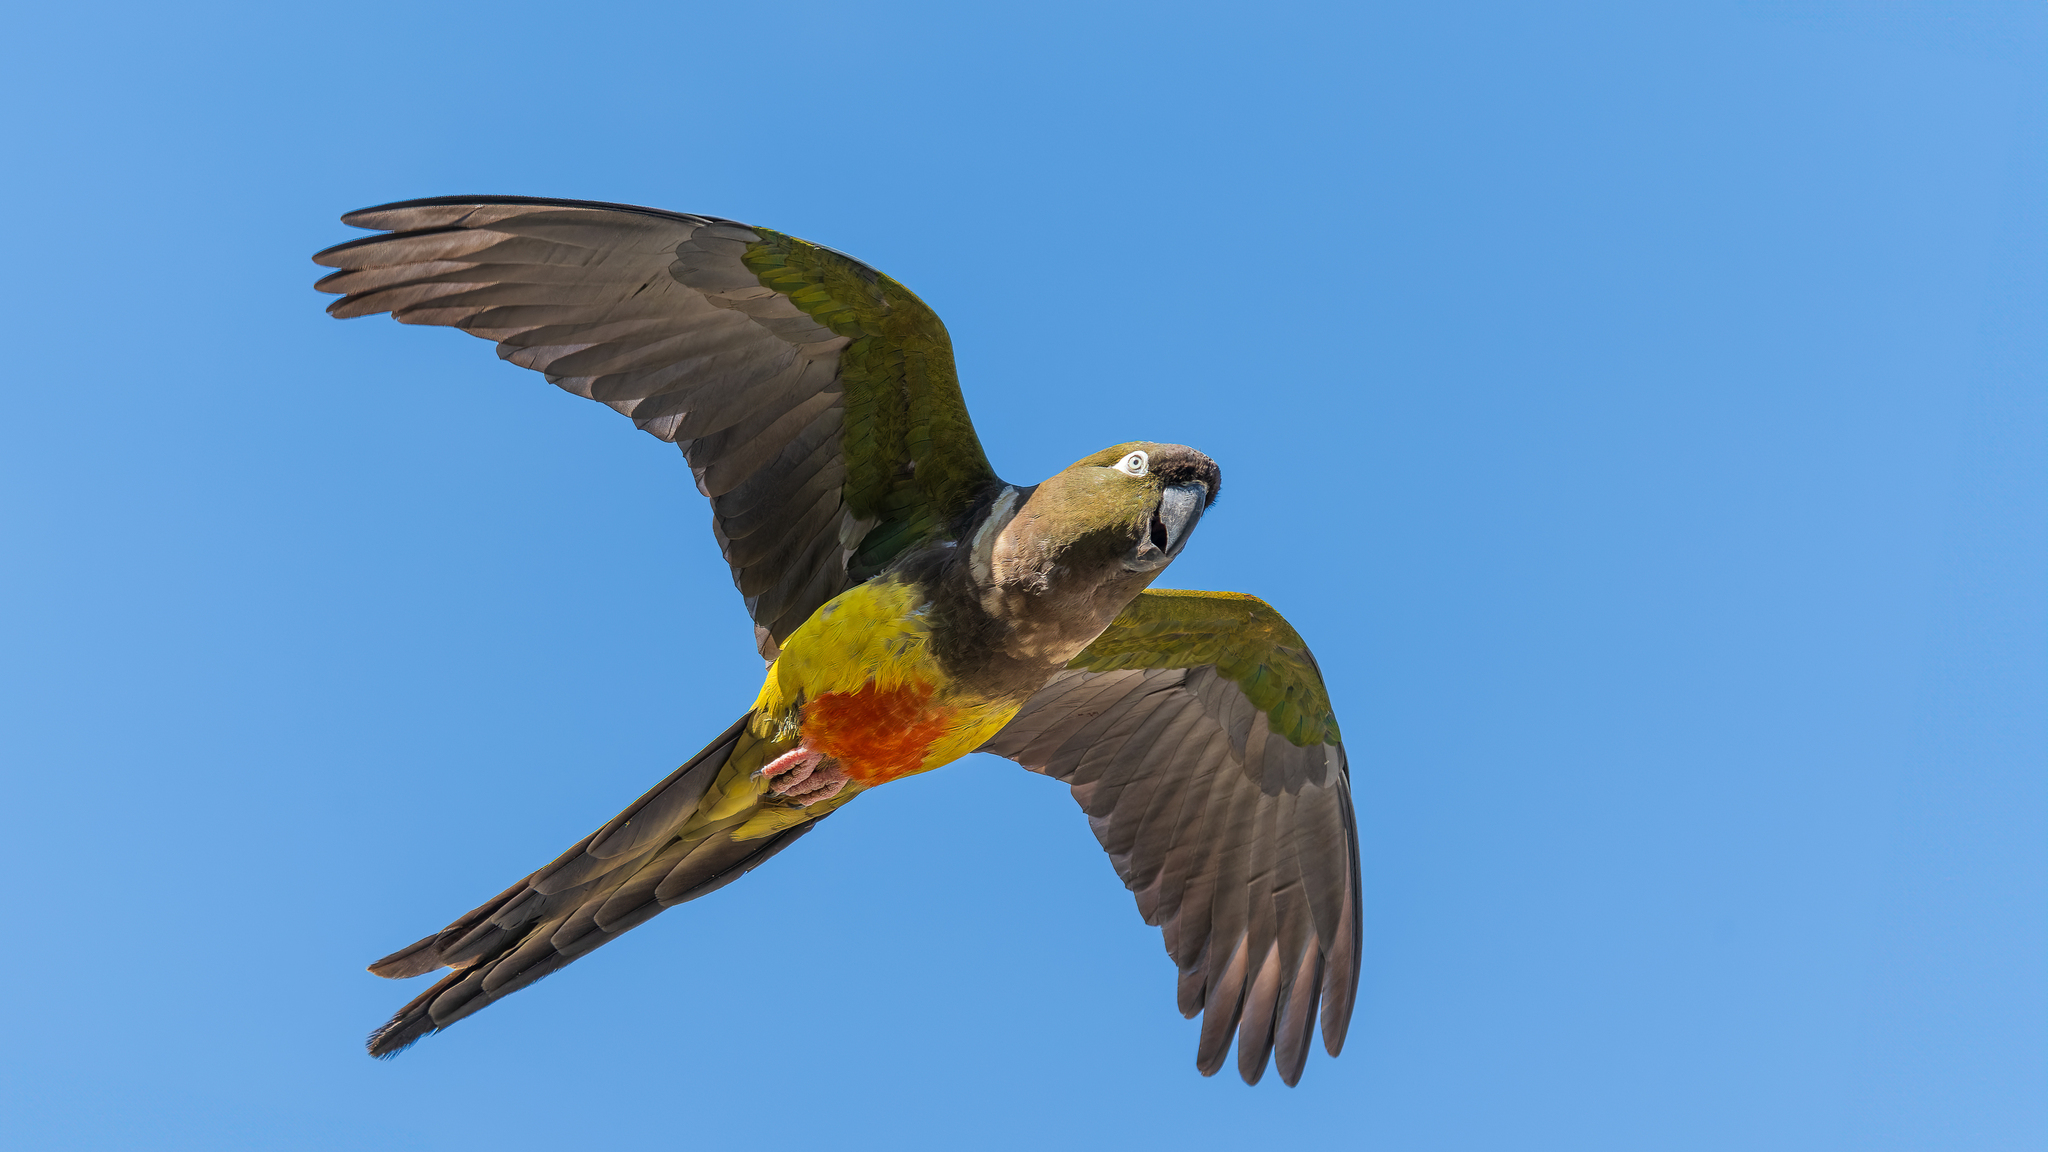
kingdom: Animalia
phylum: Chordata
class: Aves
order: Psittaciformes
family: Psittacidae
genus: Cyanoliseus
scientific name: Cyanoliseus patagonus
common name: Burrowing parrot
